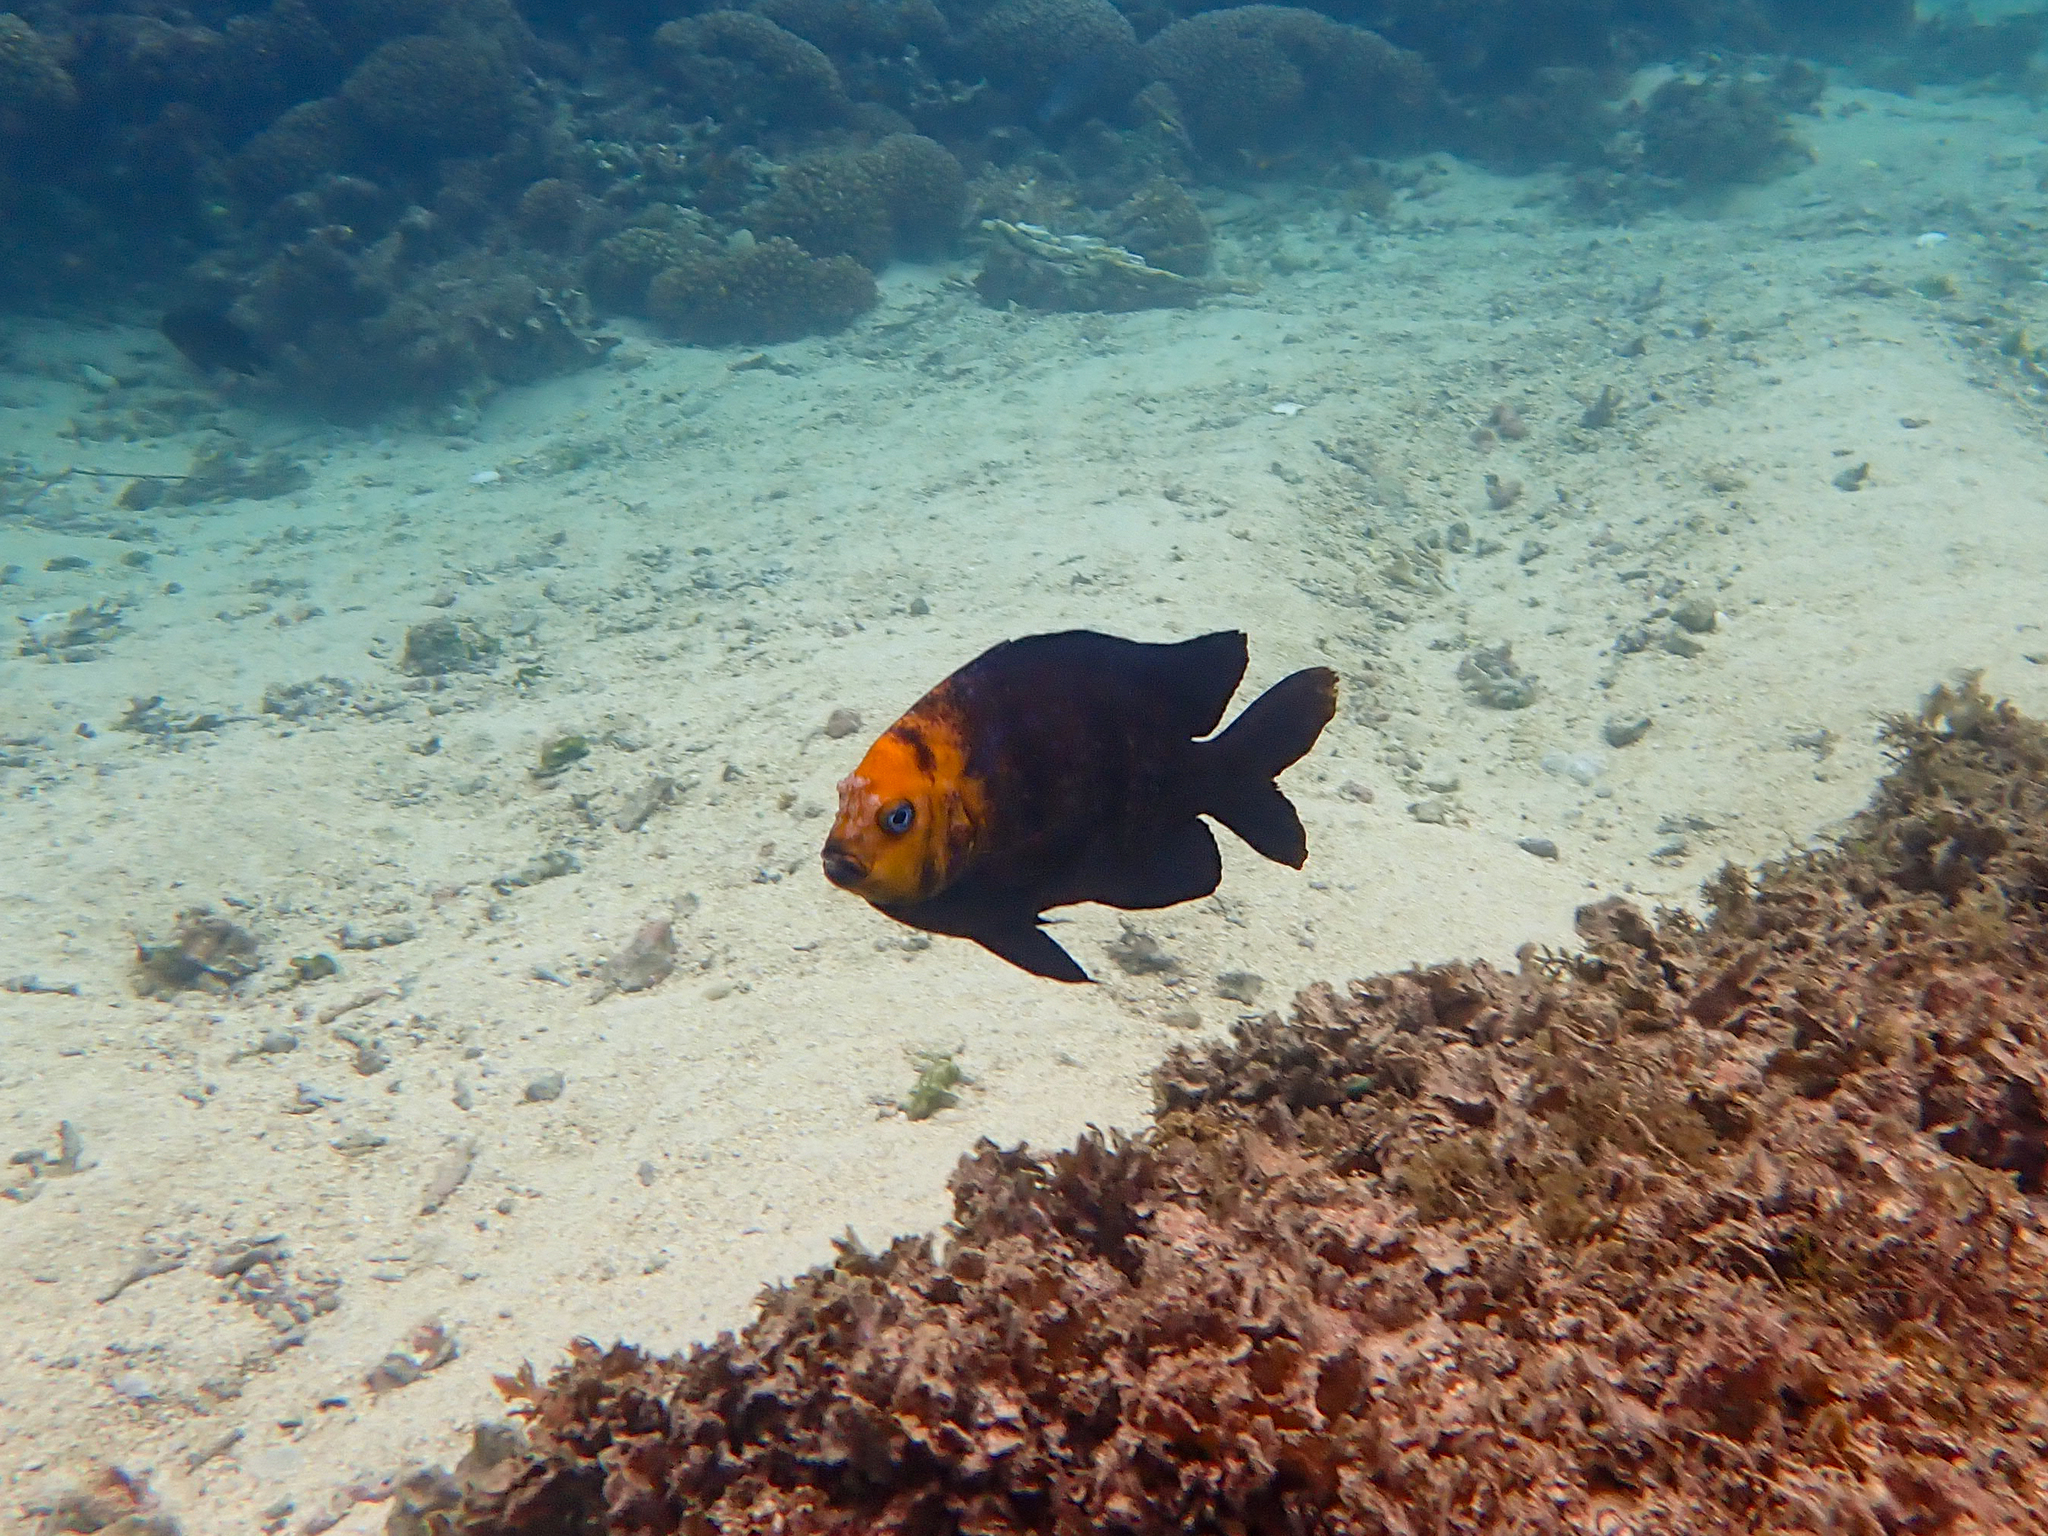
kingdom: Animalia
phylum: Chordata
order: Perciformes
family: Pomacentridae
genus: Parma
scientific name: Parma polylepis
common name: Banded parma
